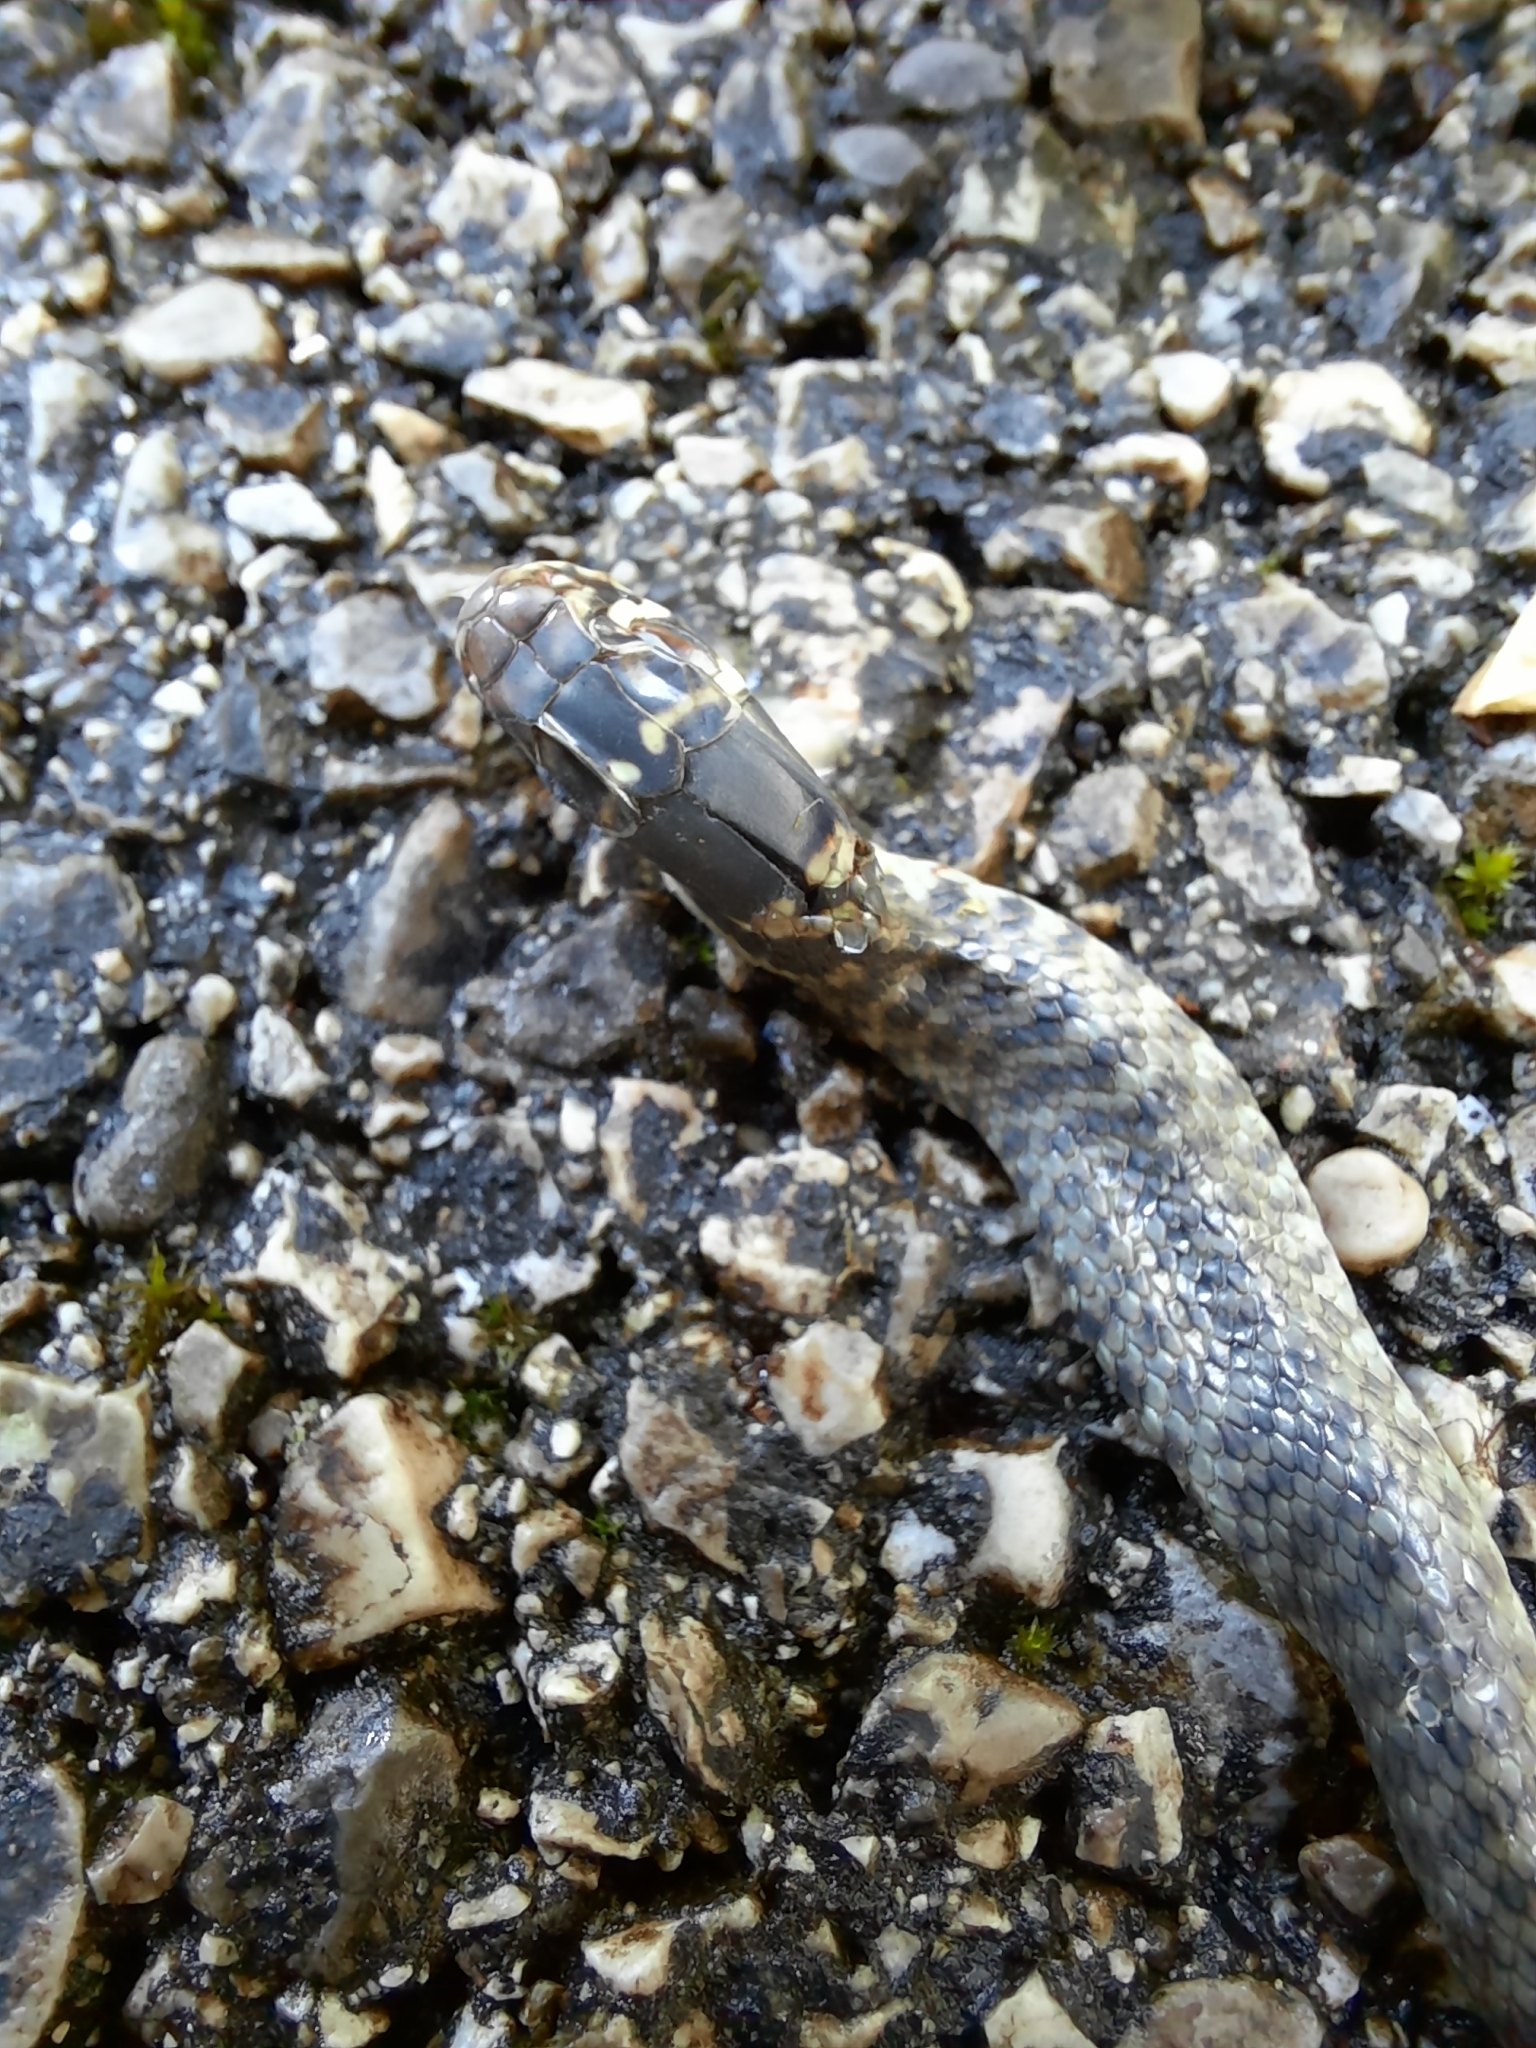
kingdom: Animalia
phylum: Chordata
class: Squamata
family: Colubridae
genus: Hierophis
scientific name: Hierophis viridiflavus
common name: Green whip snake
